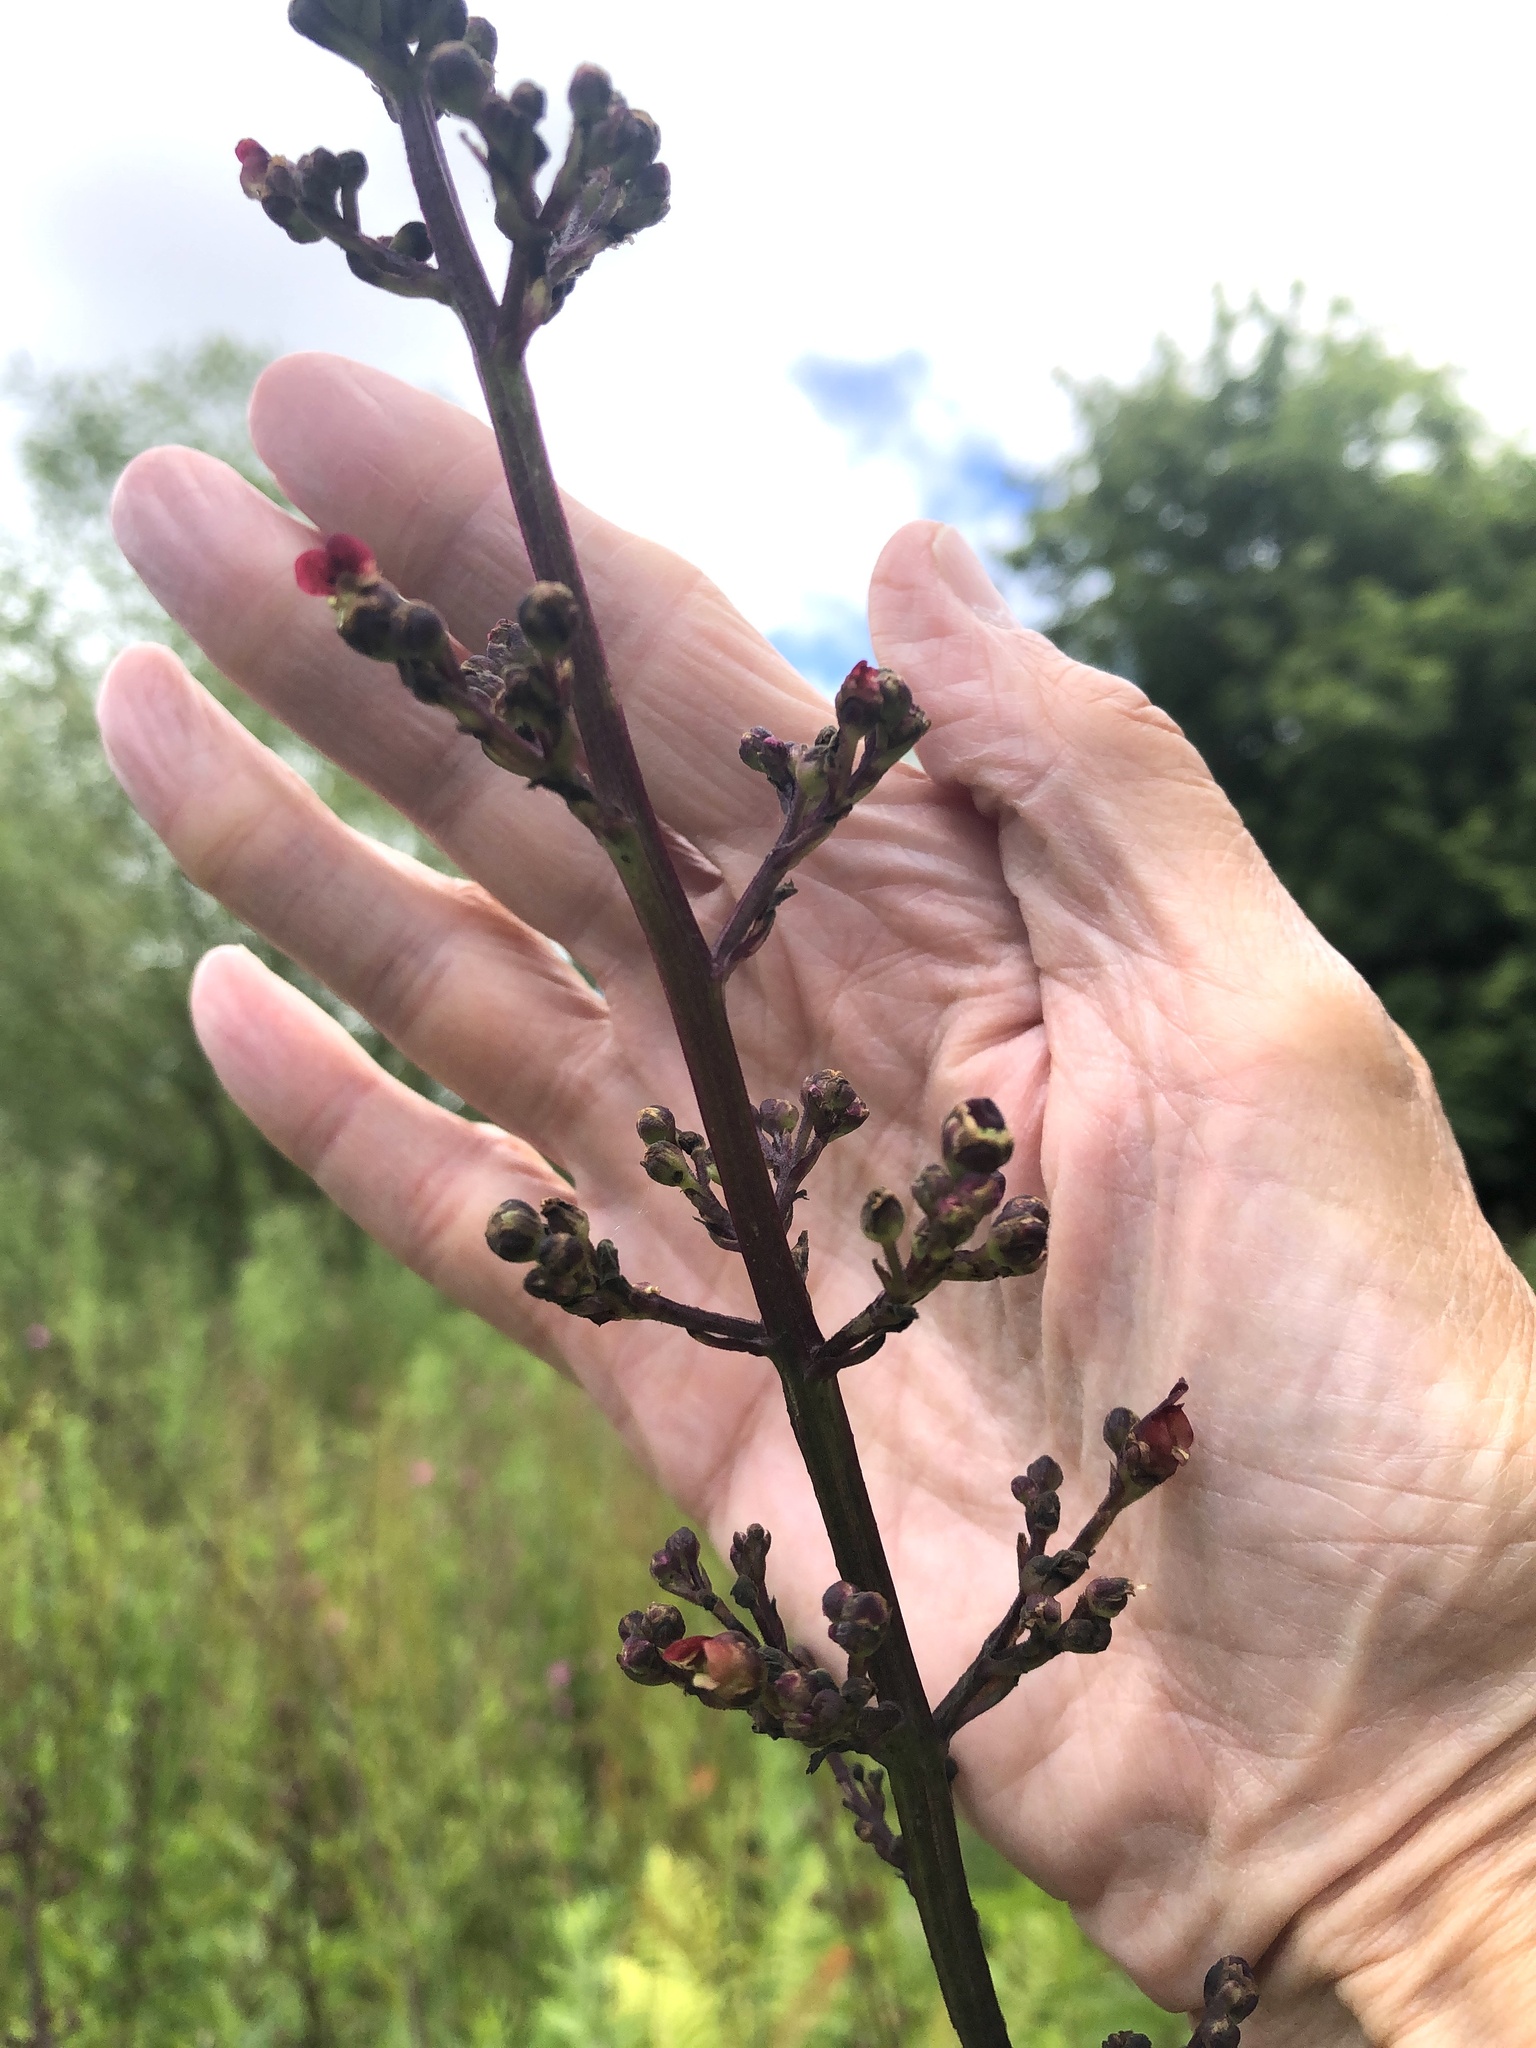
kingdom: Plantae
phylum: Tracheophyta
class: Magnoliopsida
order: Lamiales
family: Scrophulariaceae
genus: Scrophularia
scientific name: Scrophularia auriculata
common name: Water betony
